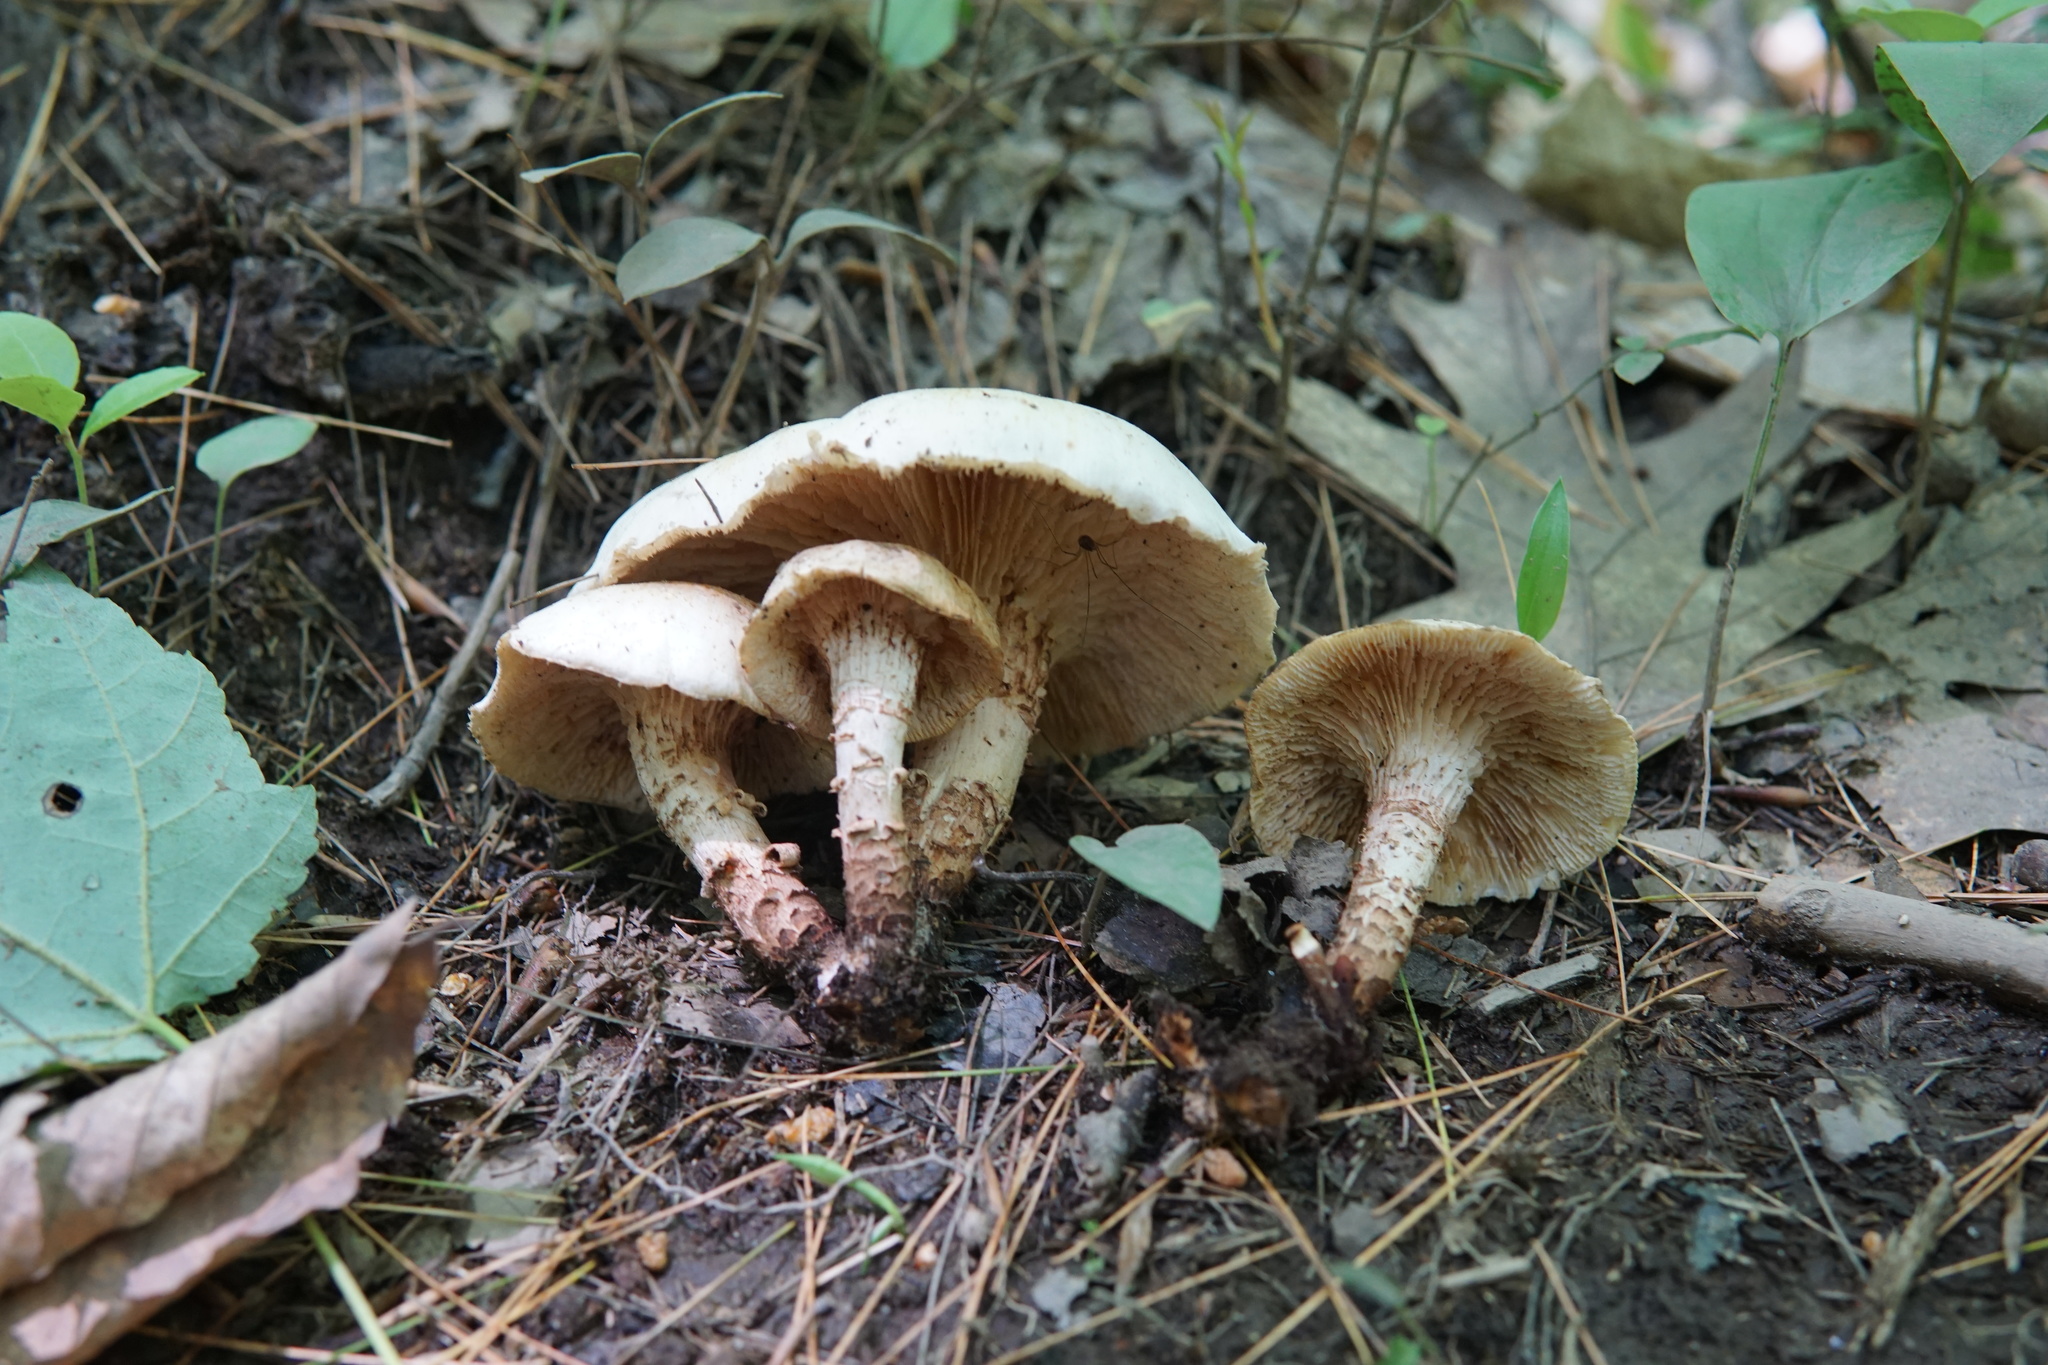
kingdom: Fungi
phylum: Basidiomycota
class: Agaricomycetes
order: Gloeophyllales
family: Gloeophyllaceae
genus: Neolentinus
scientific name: Neolentinus lepideus
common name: Scaly sawgill
